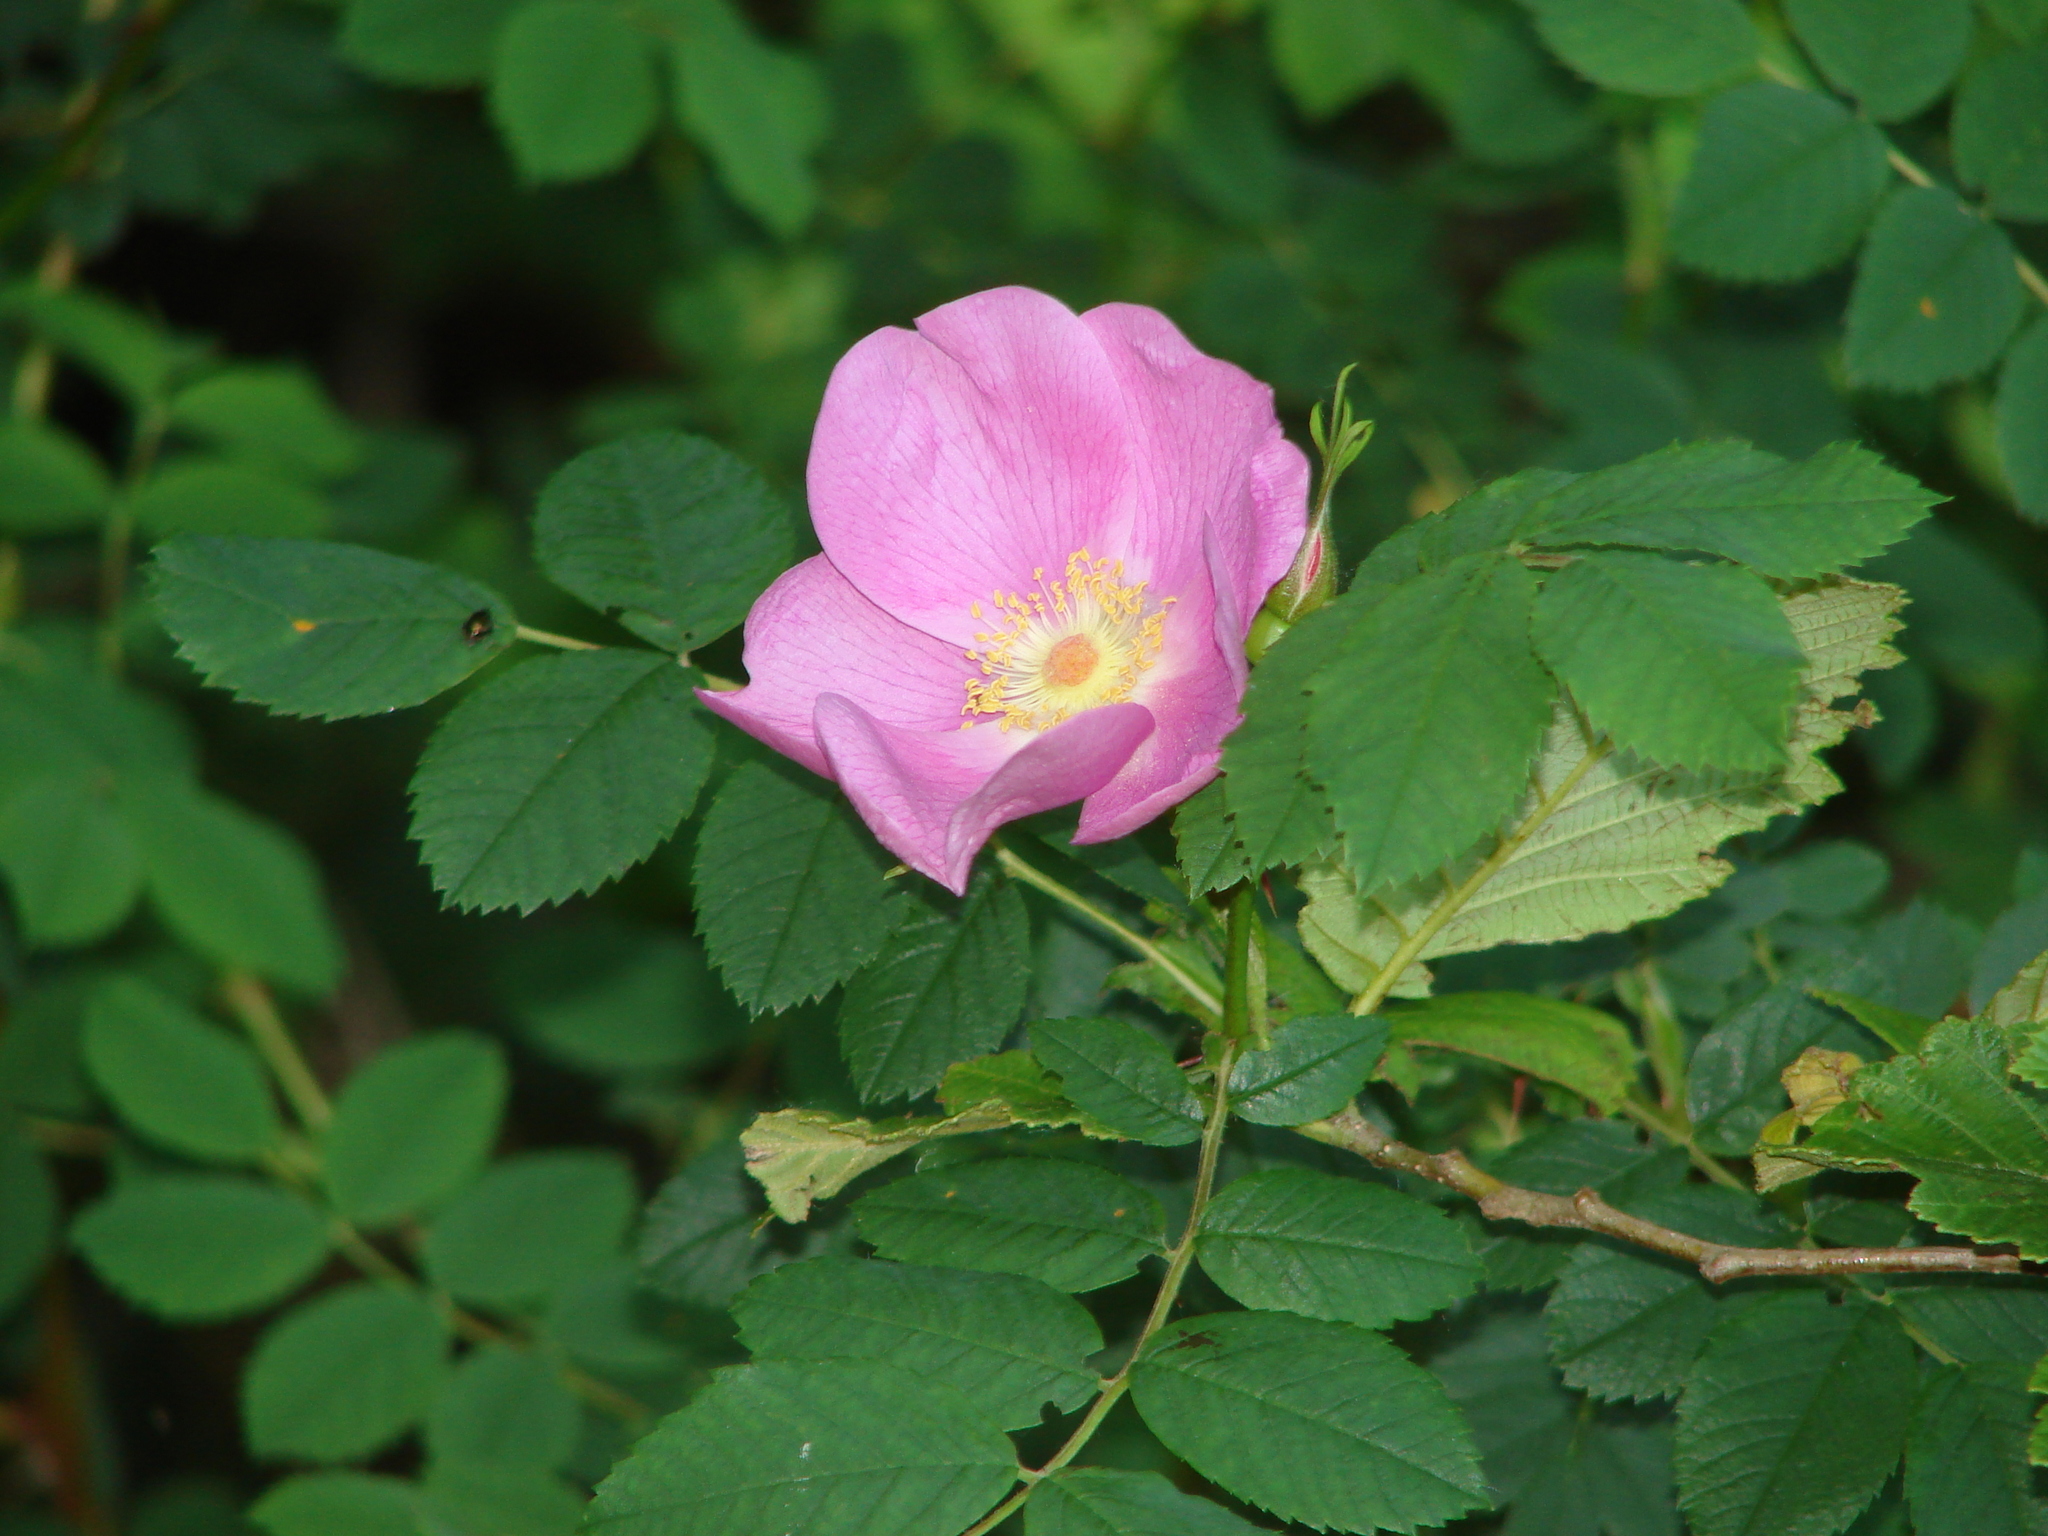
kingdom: Plantae
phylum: Tracheophyta
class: Magnoliopsida
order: Rosales
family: Rosaceae
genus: Rosa
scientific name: Rosa nutkana
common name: Nootka rose
